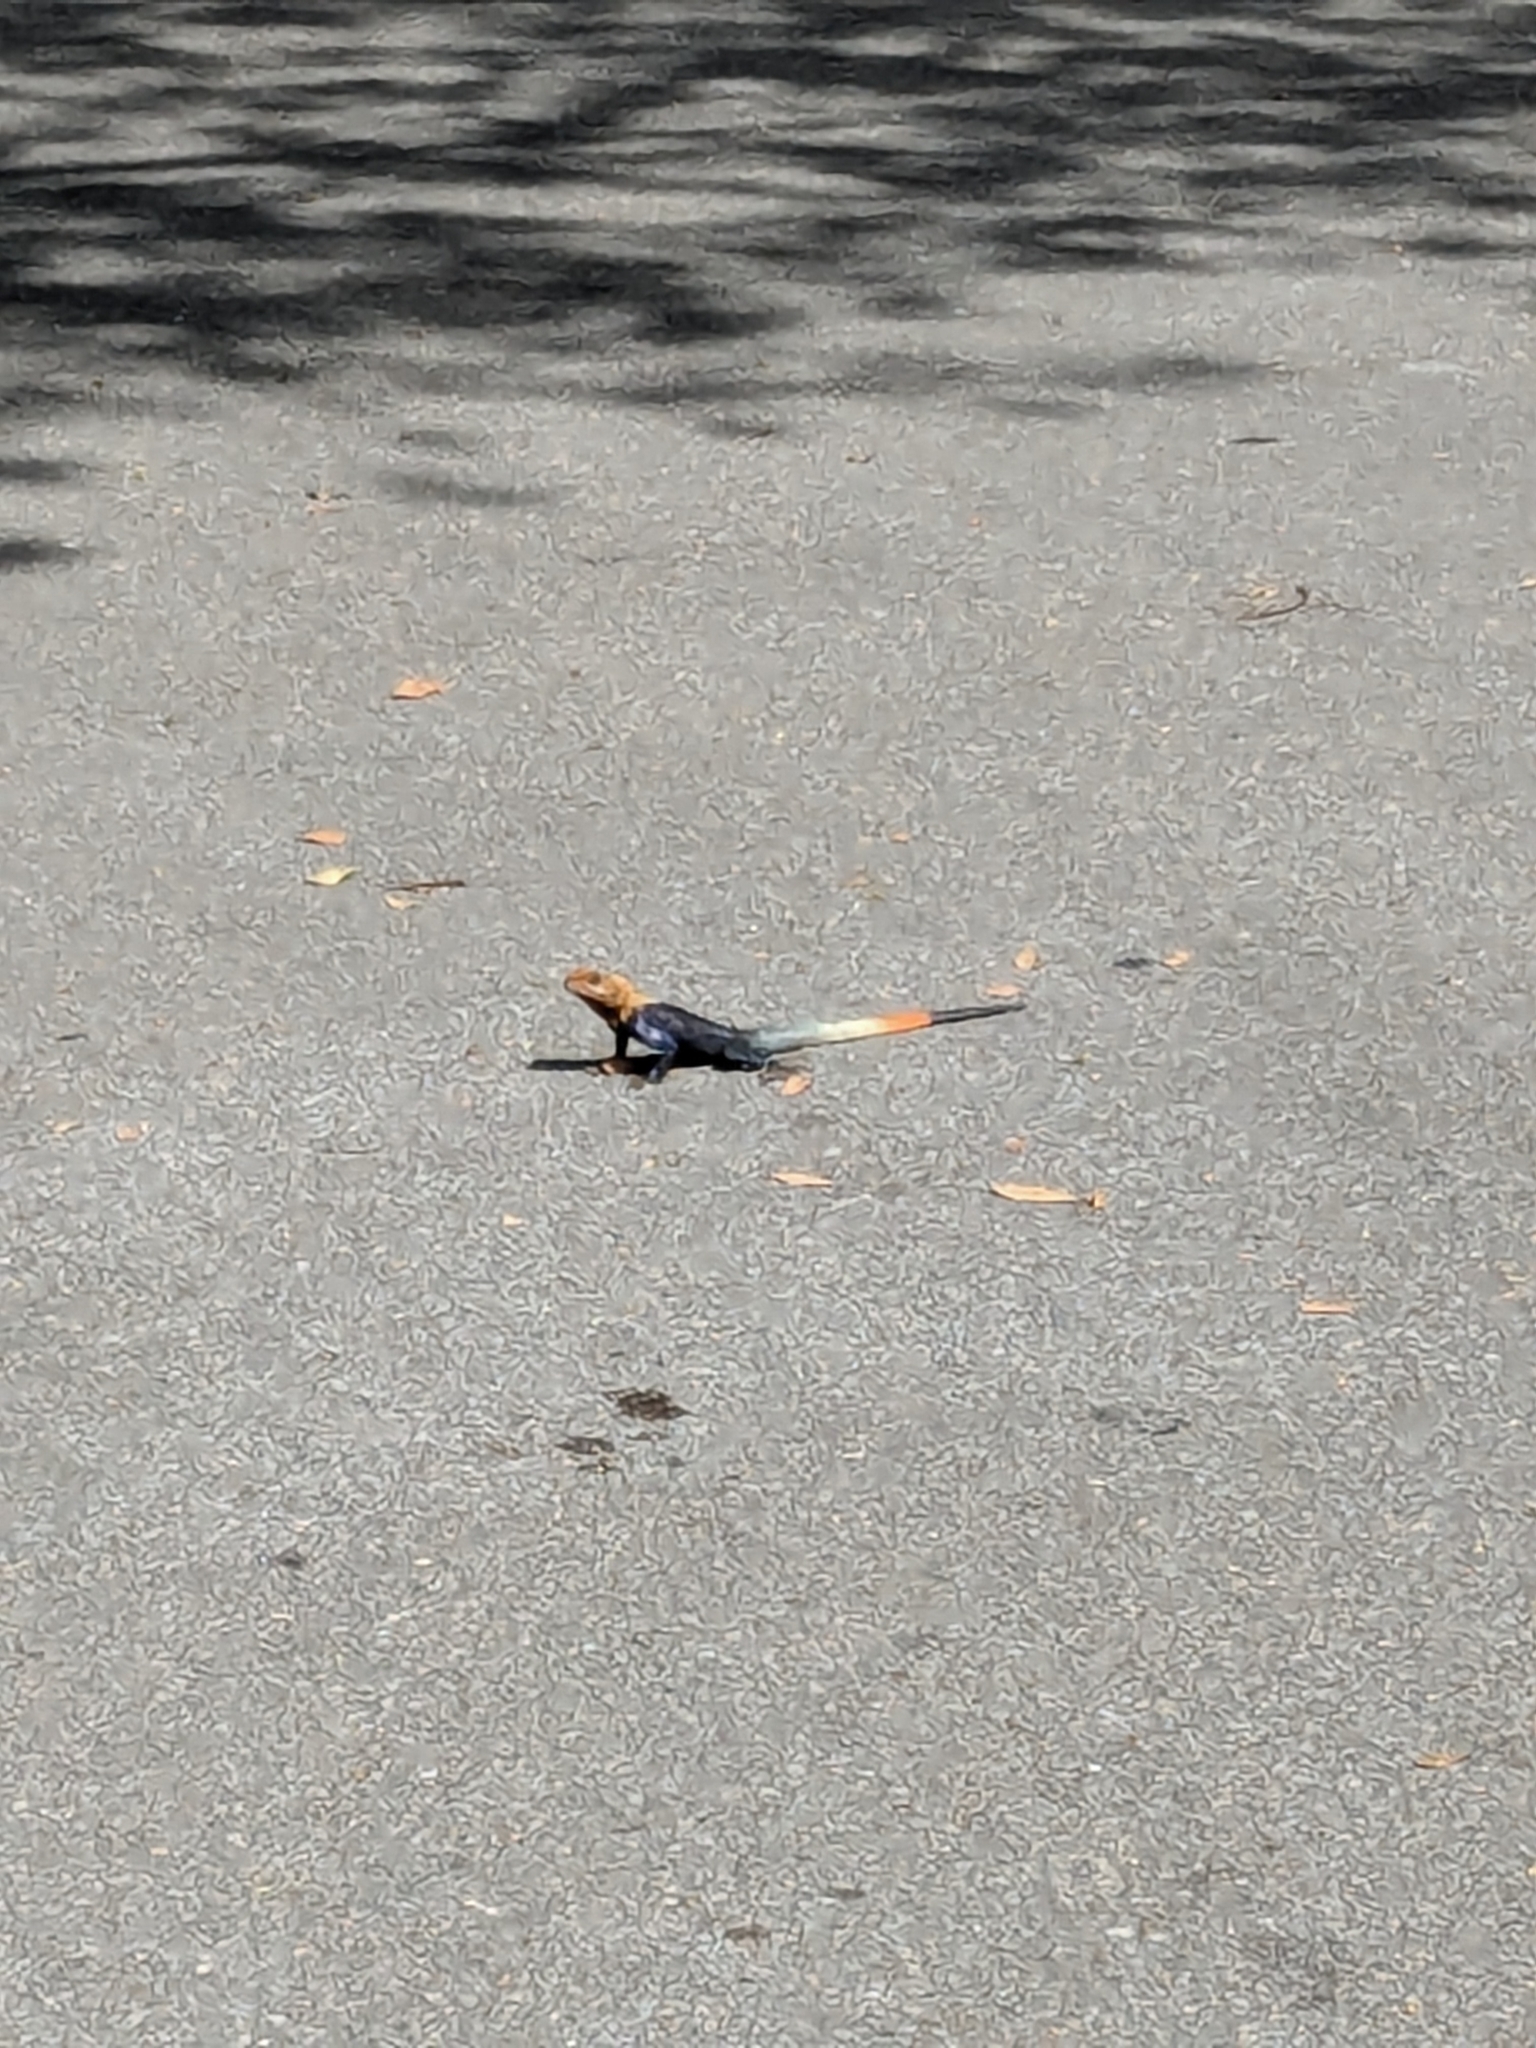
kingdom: Animalia
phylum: Chordata
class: Squamata
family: Agamidae
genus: Agama
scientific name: Agama picticauda
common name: Red-headed agama
